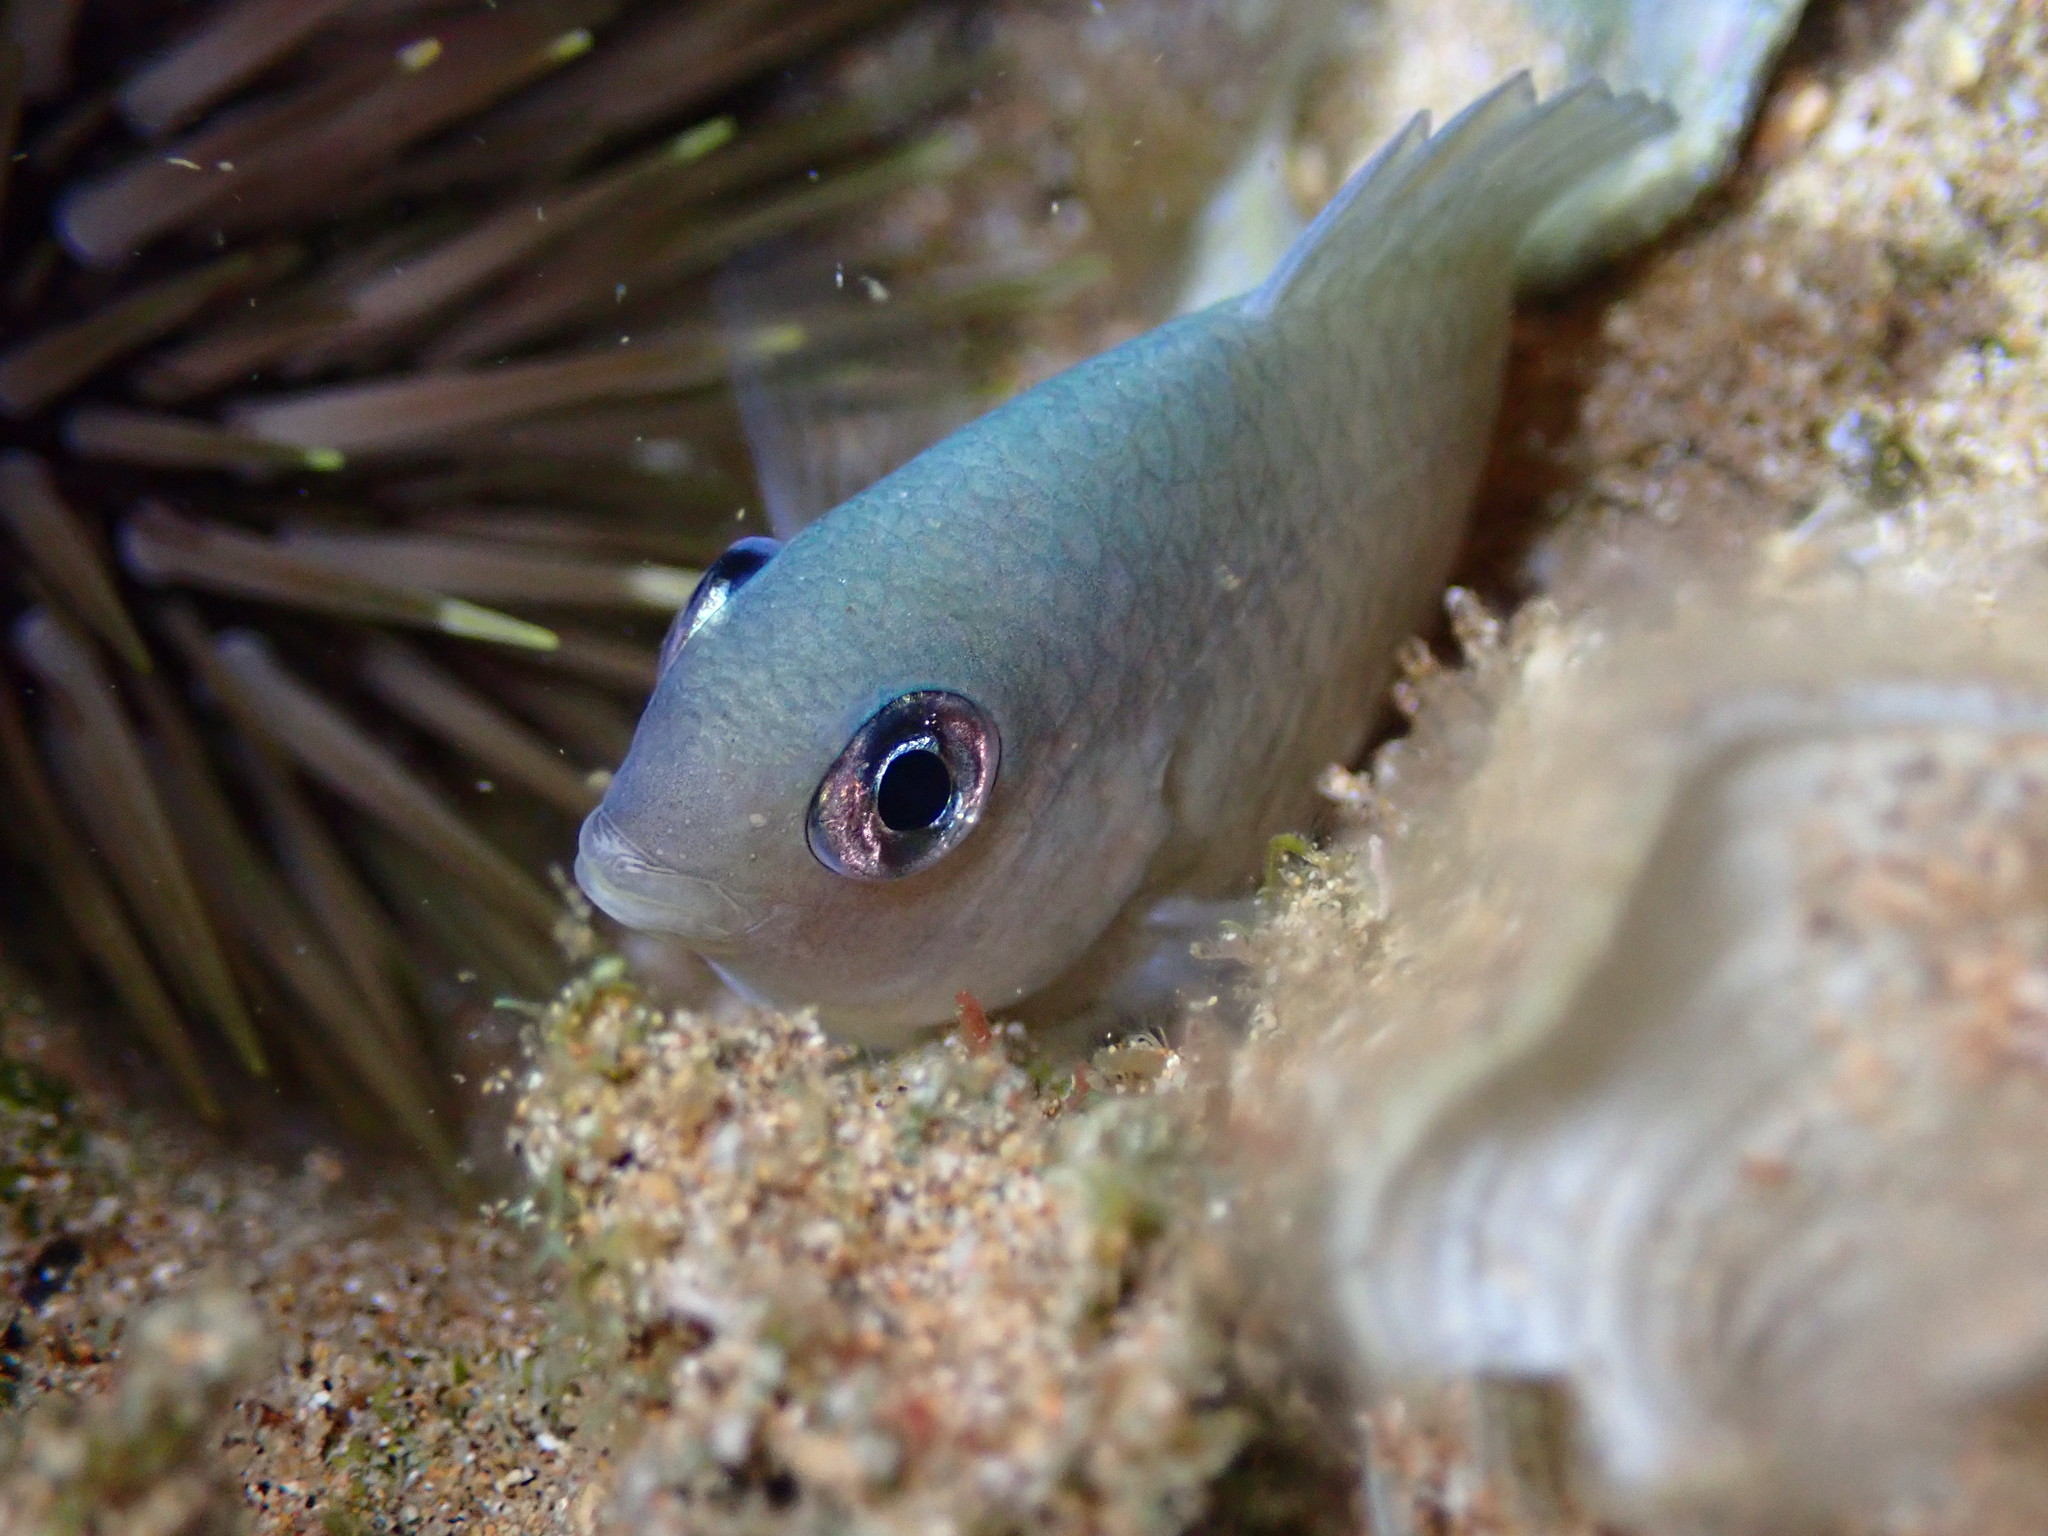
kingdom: Animalia
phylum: Chordata
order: Perciformes
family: Pomacentridae
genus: Plectroglyphidodon
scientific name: Plectroglyphidodon imparipennis
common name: Brighteye damsel
